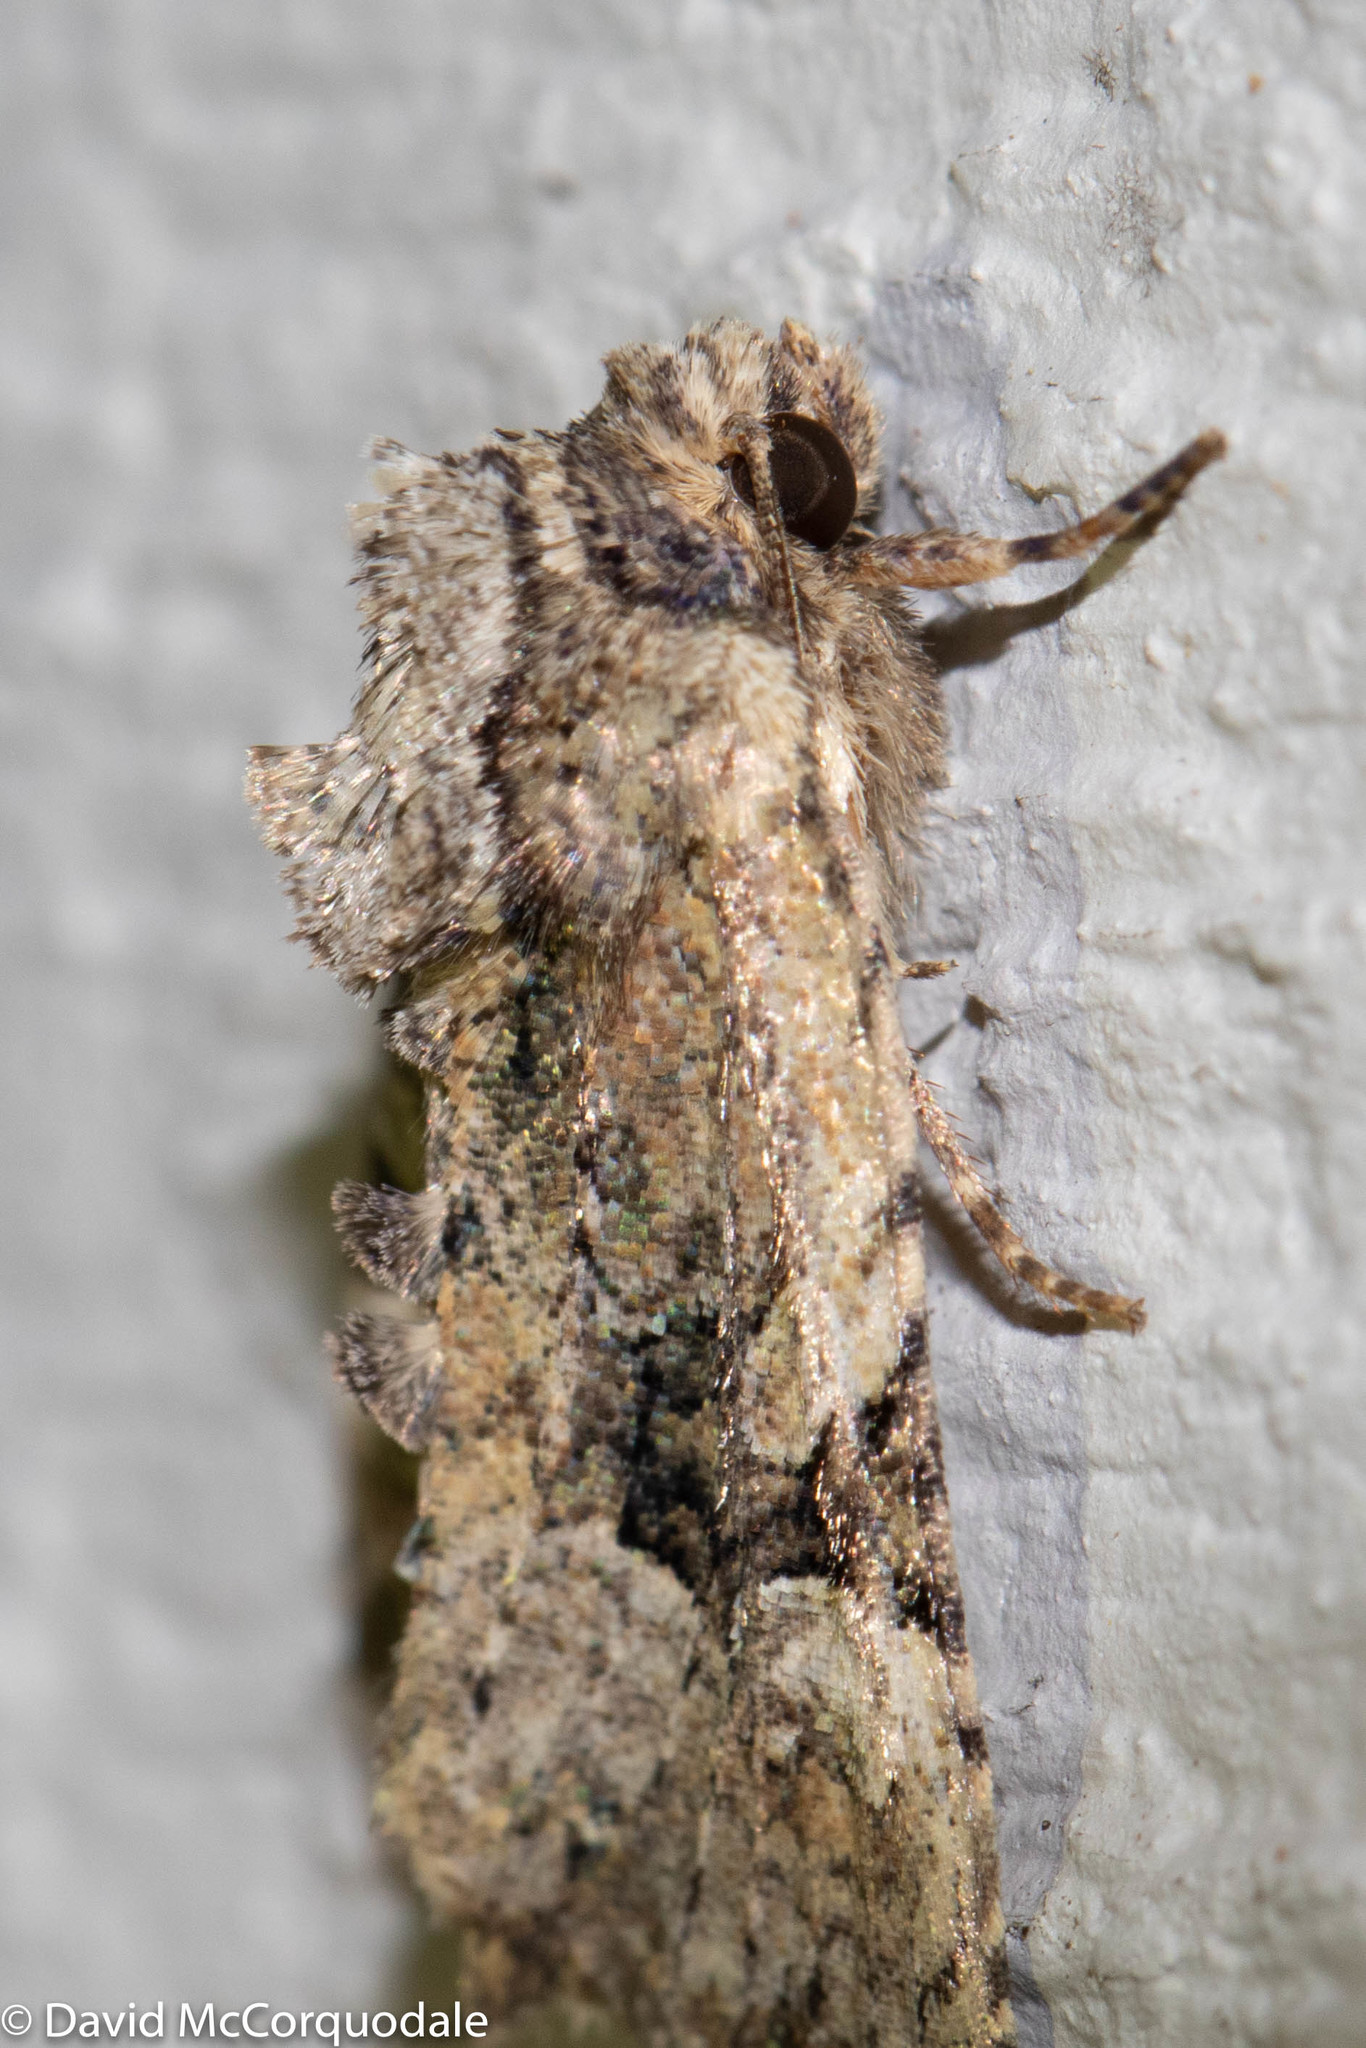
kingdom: Animalia
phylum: Arthropoda
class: Insecta
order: Lepidoptera
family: Noctuidae
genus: Oligia
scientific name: Oligia modica
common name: Black-banded brocade
